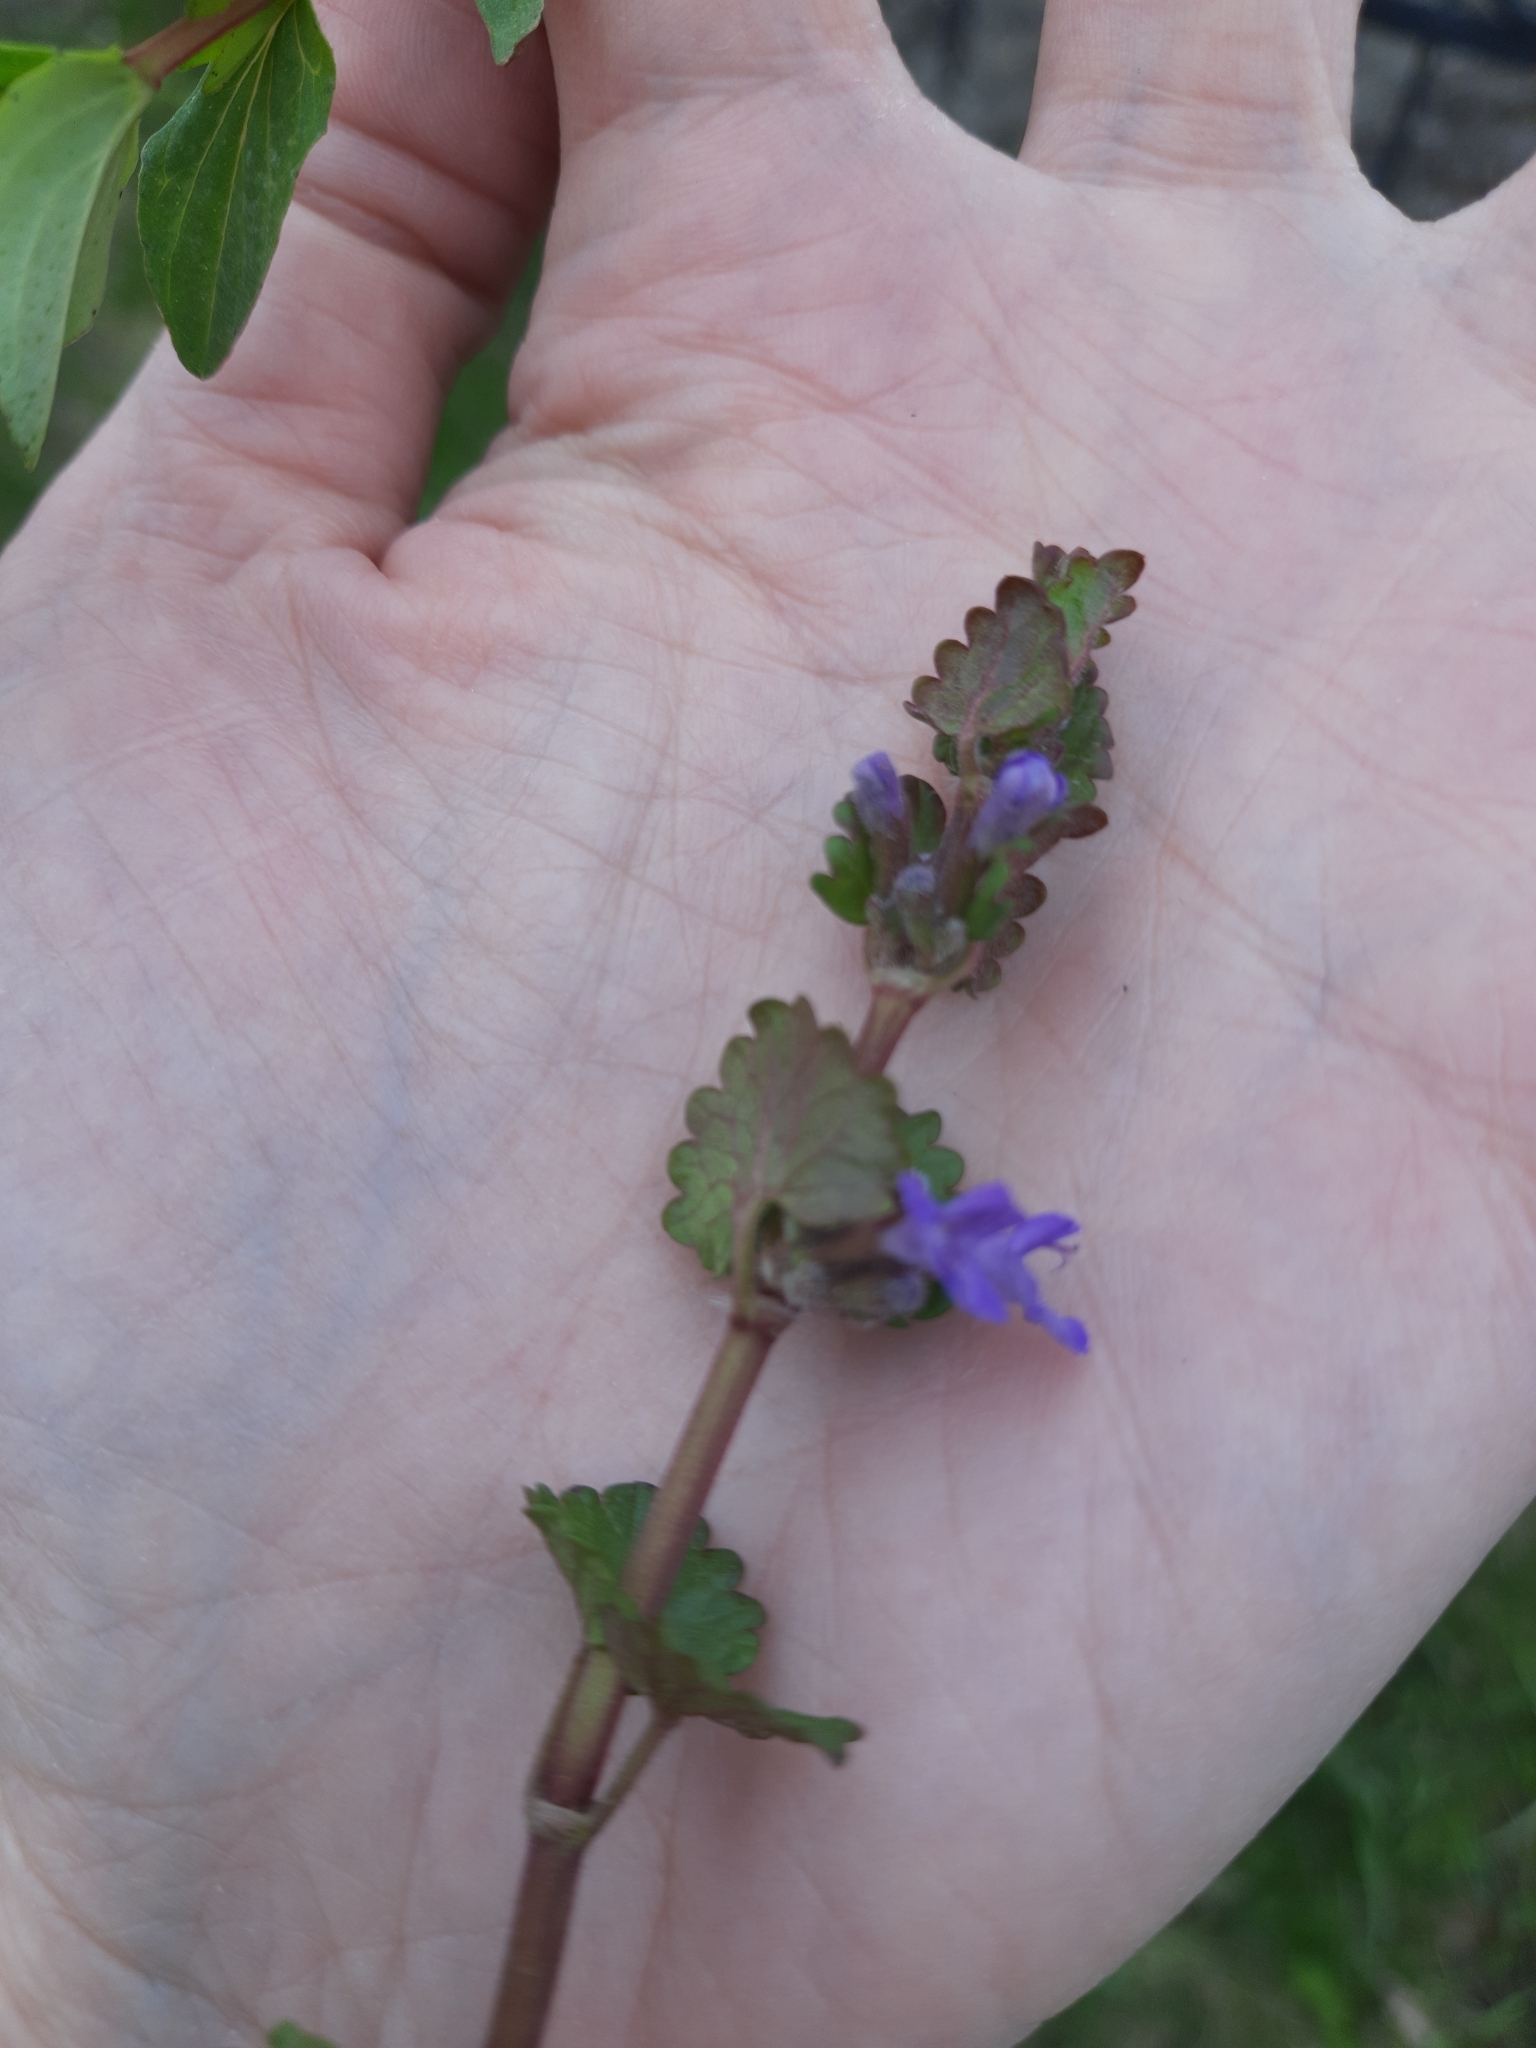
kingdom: Plantae
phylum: Tracheophyta
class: Magnoliopsida
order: Lamiales
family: Lamiaceae
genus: Glechoma
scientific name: Glechoma hederacea
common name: Ground ivy
